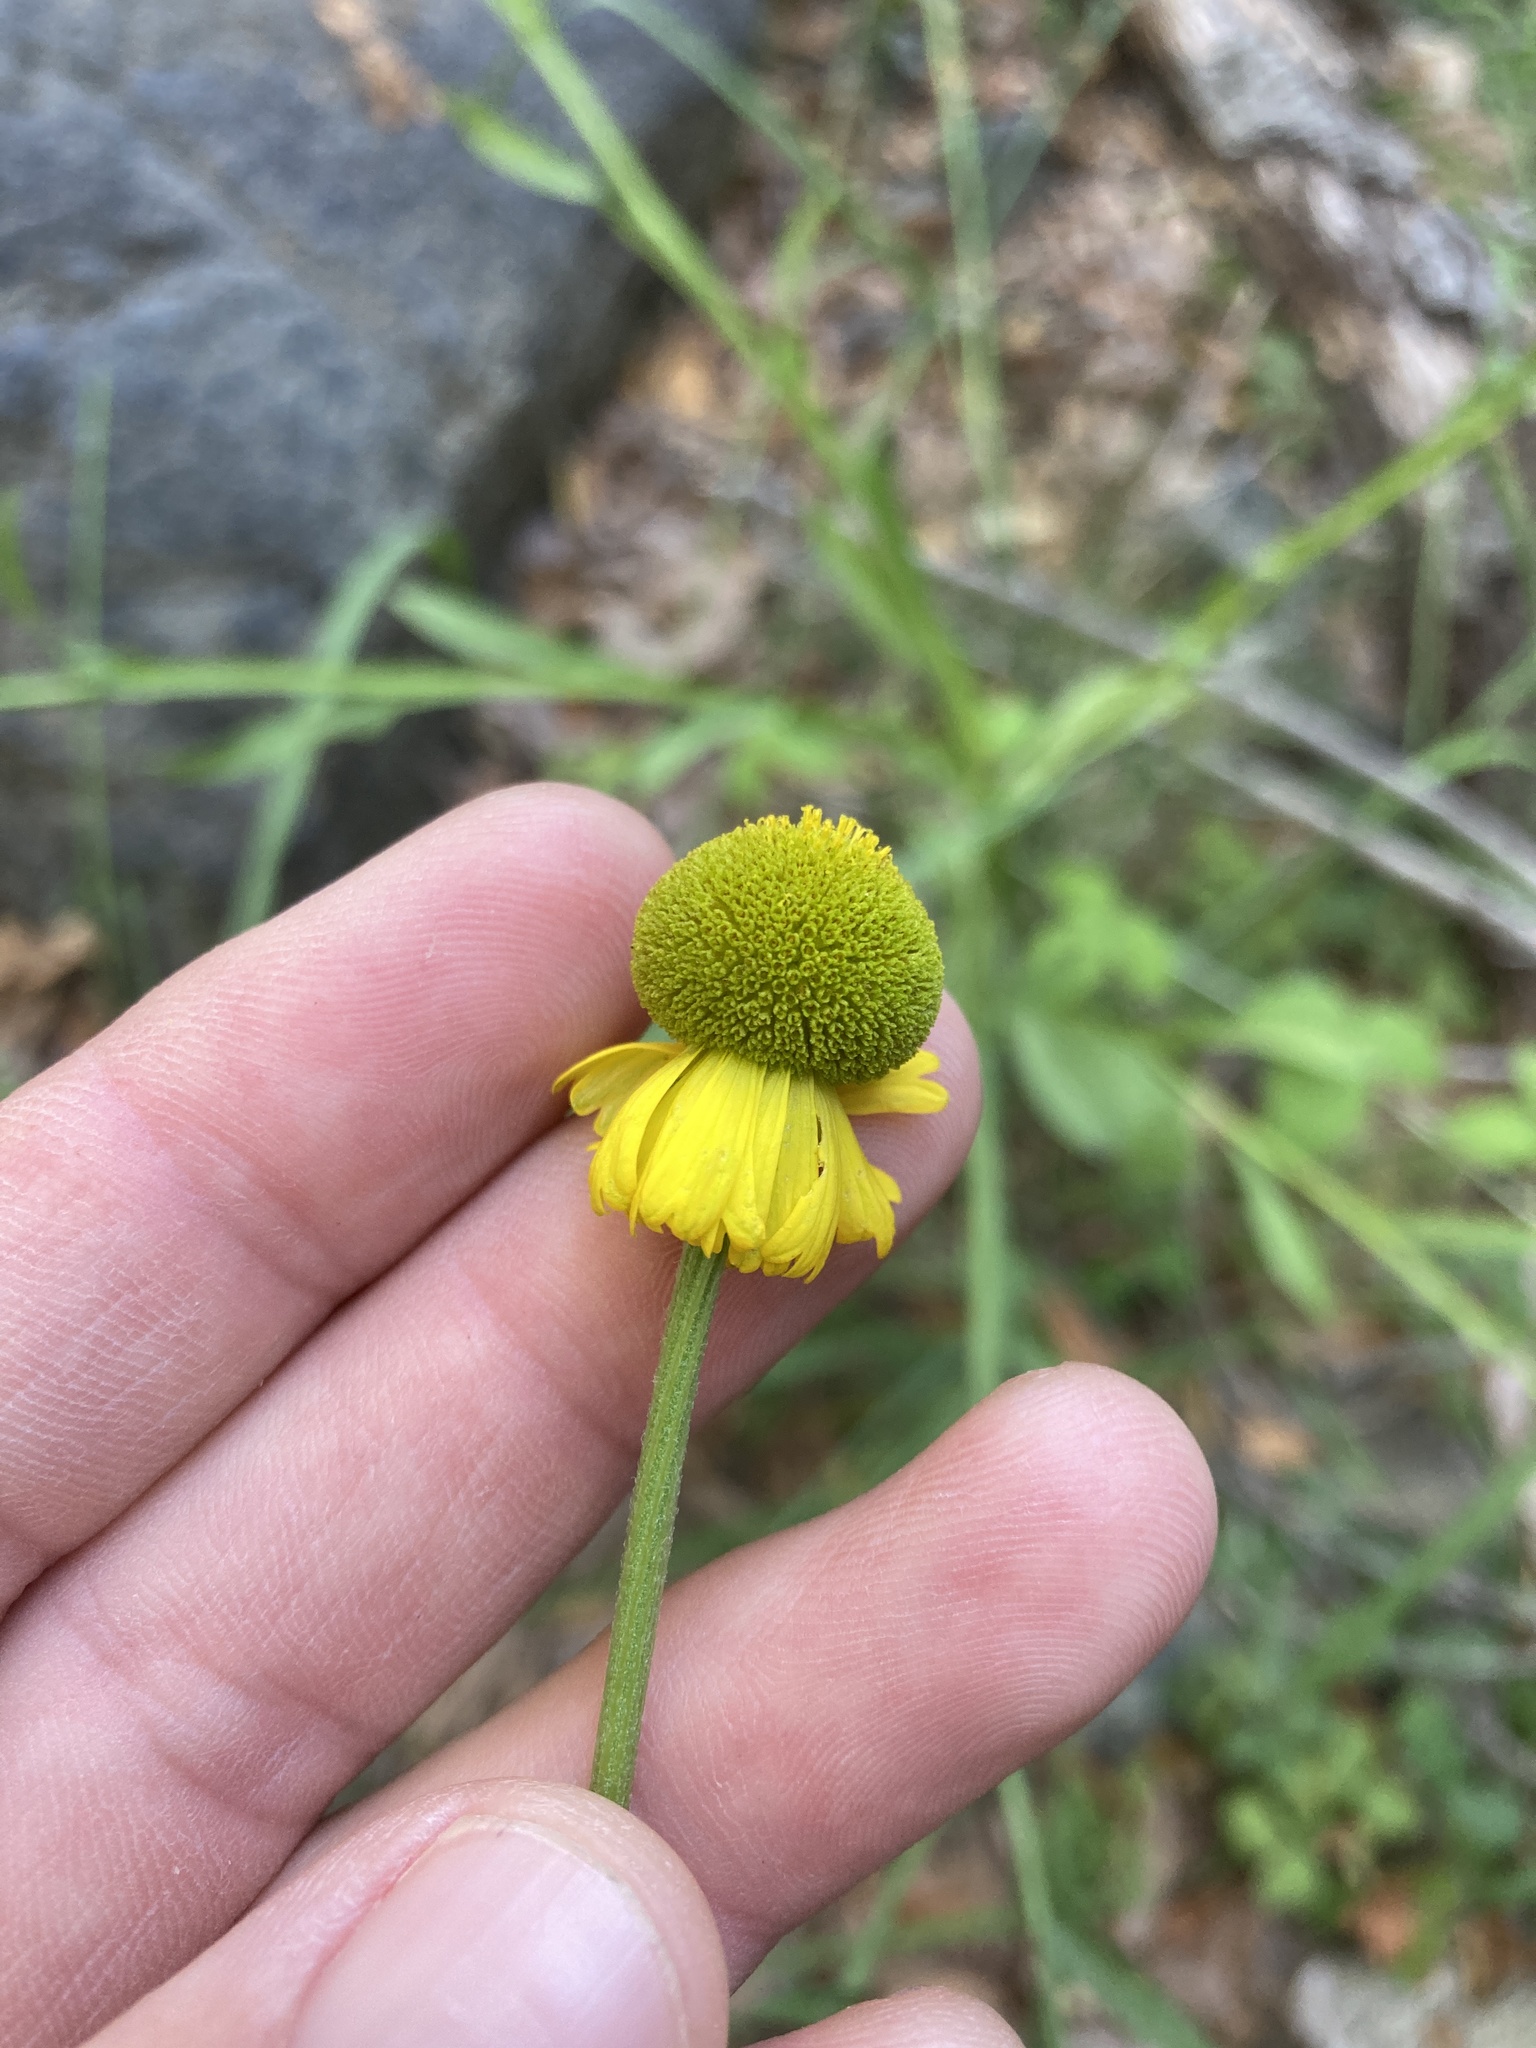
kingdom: Plantae
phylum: Tracheophyta
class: Magnoliopsida
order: Asterales
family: Asteraceae
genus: Helenium
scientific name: Helenium bigelovii
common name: Bigelow's sneezeweed
